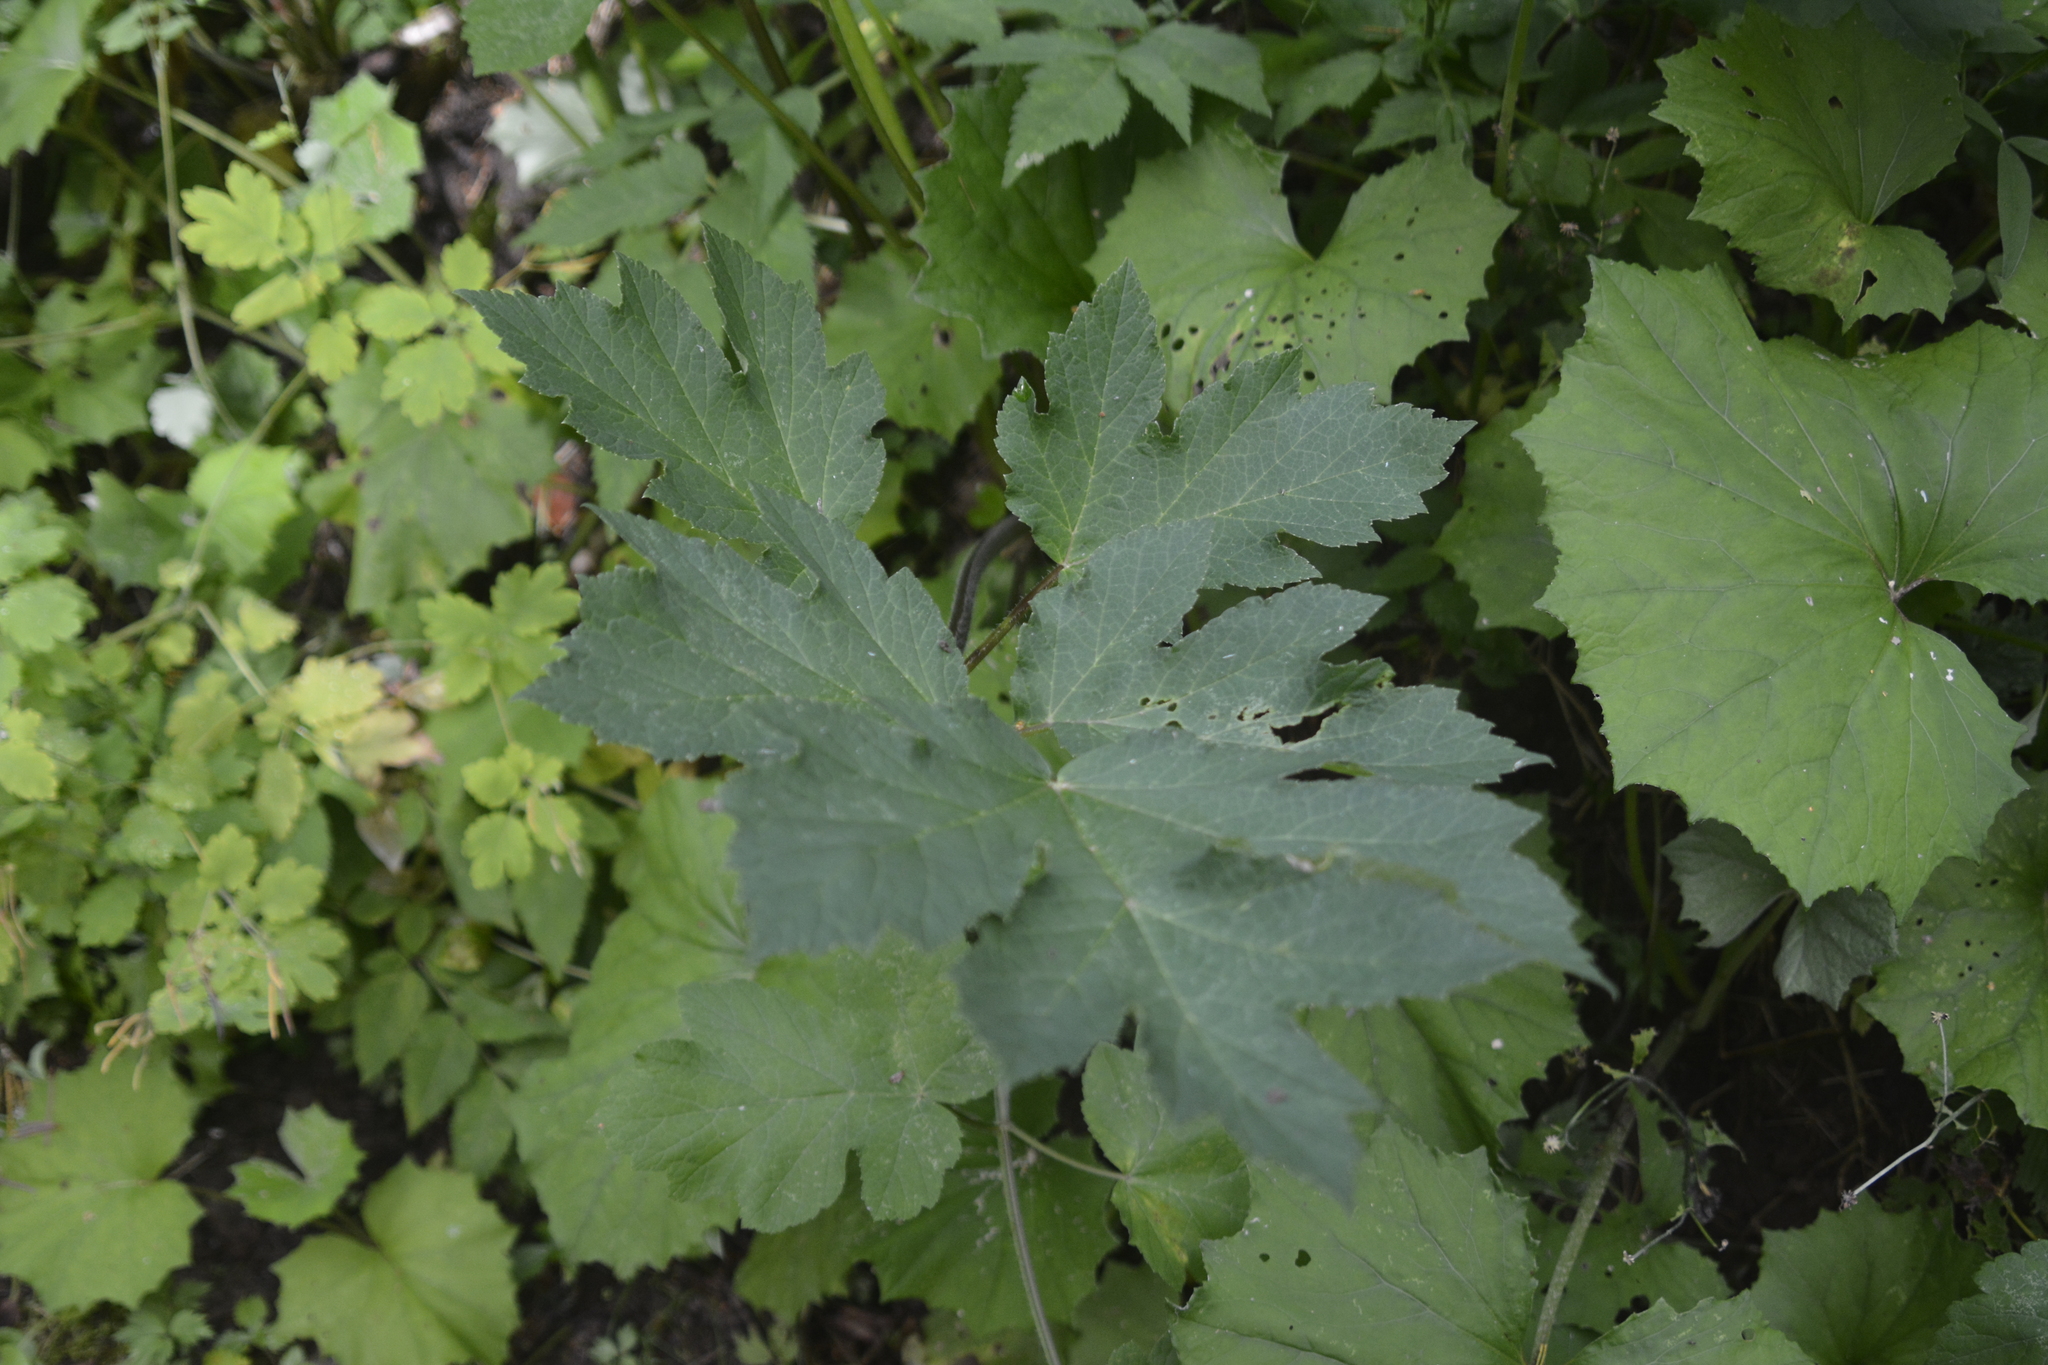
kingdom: Plantae
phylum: Tracheophyta
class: Magnoliopsida
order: Apiales
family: Apiaceae
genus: Heracleum
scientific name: Heracleum sphondylium
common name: Hogweed
